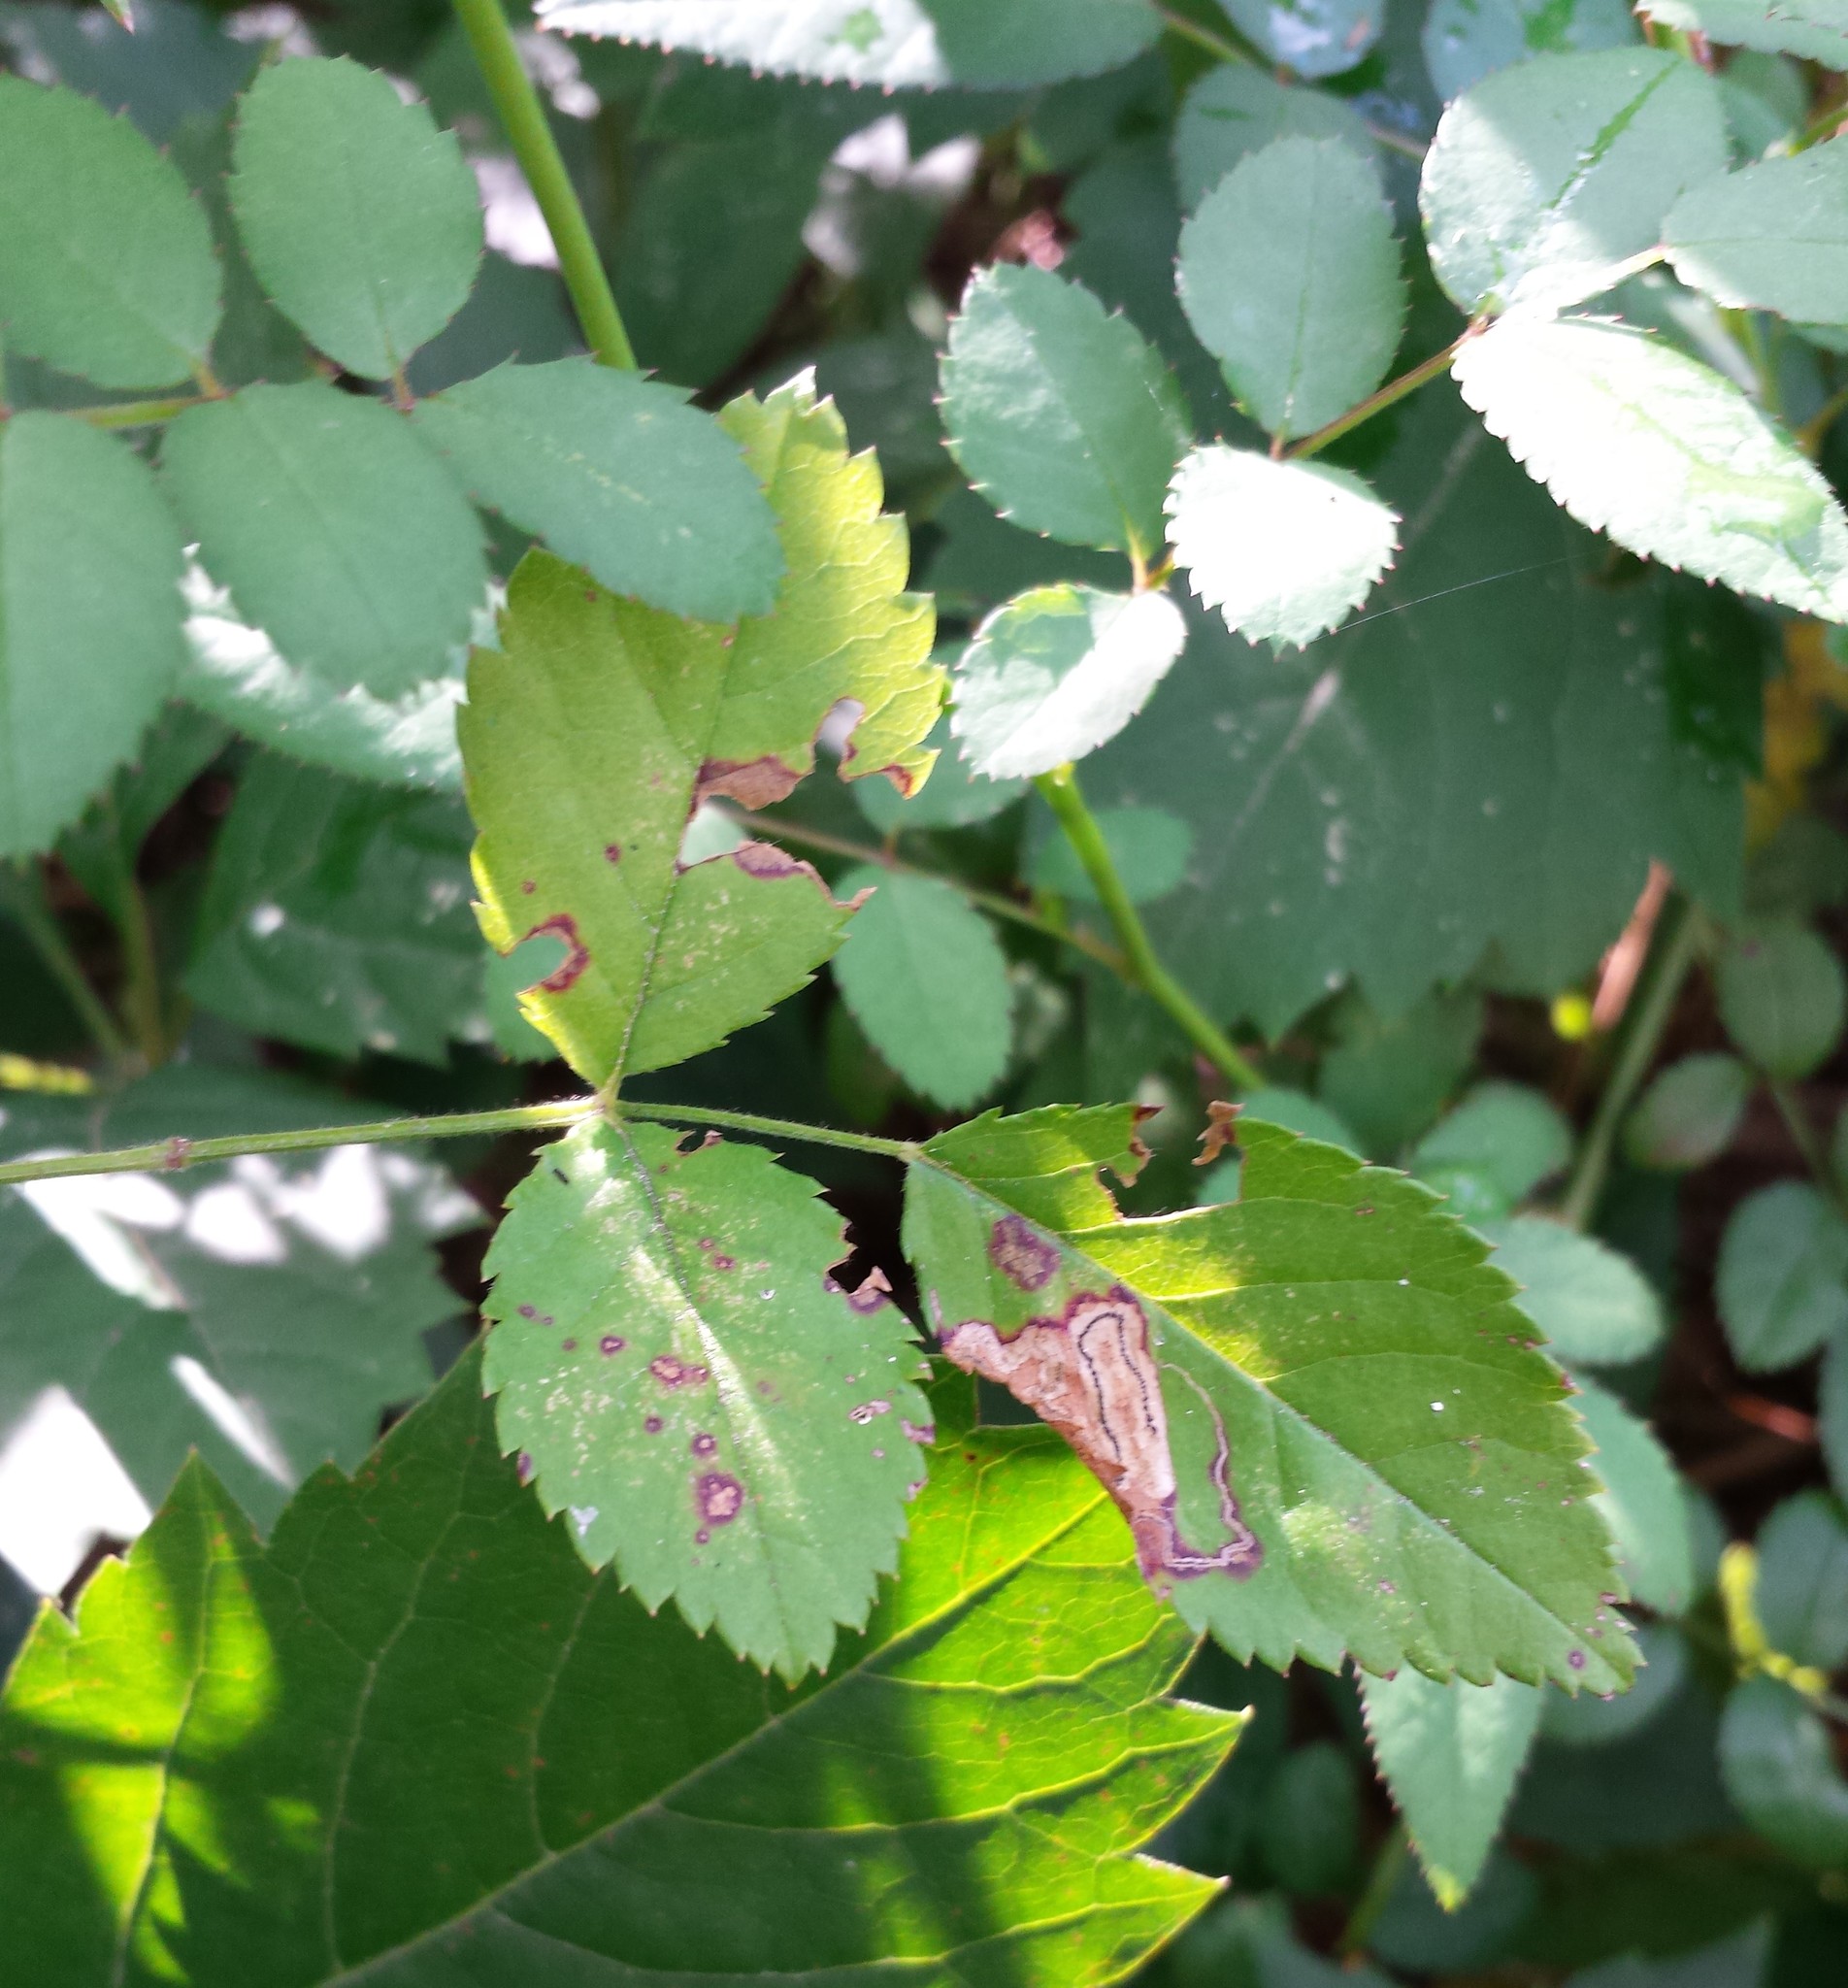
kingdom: Plantae
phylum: Tracheophyta
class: Magnoliopsida
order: Rosales
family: Rosaceae
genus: Rosa
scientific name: Rosa multiflora
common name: Multiflora rose
